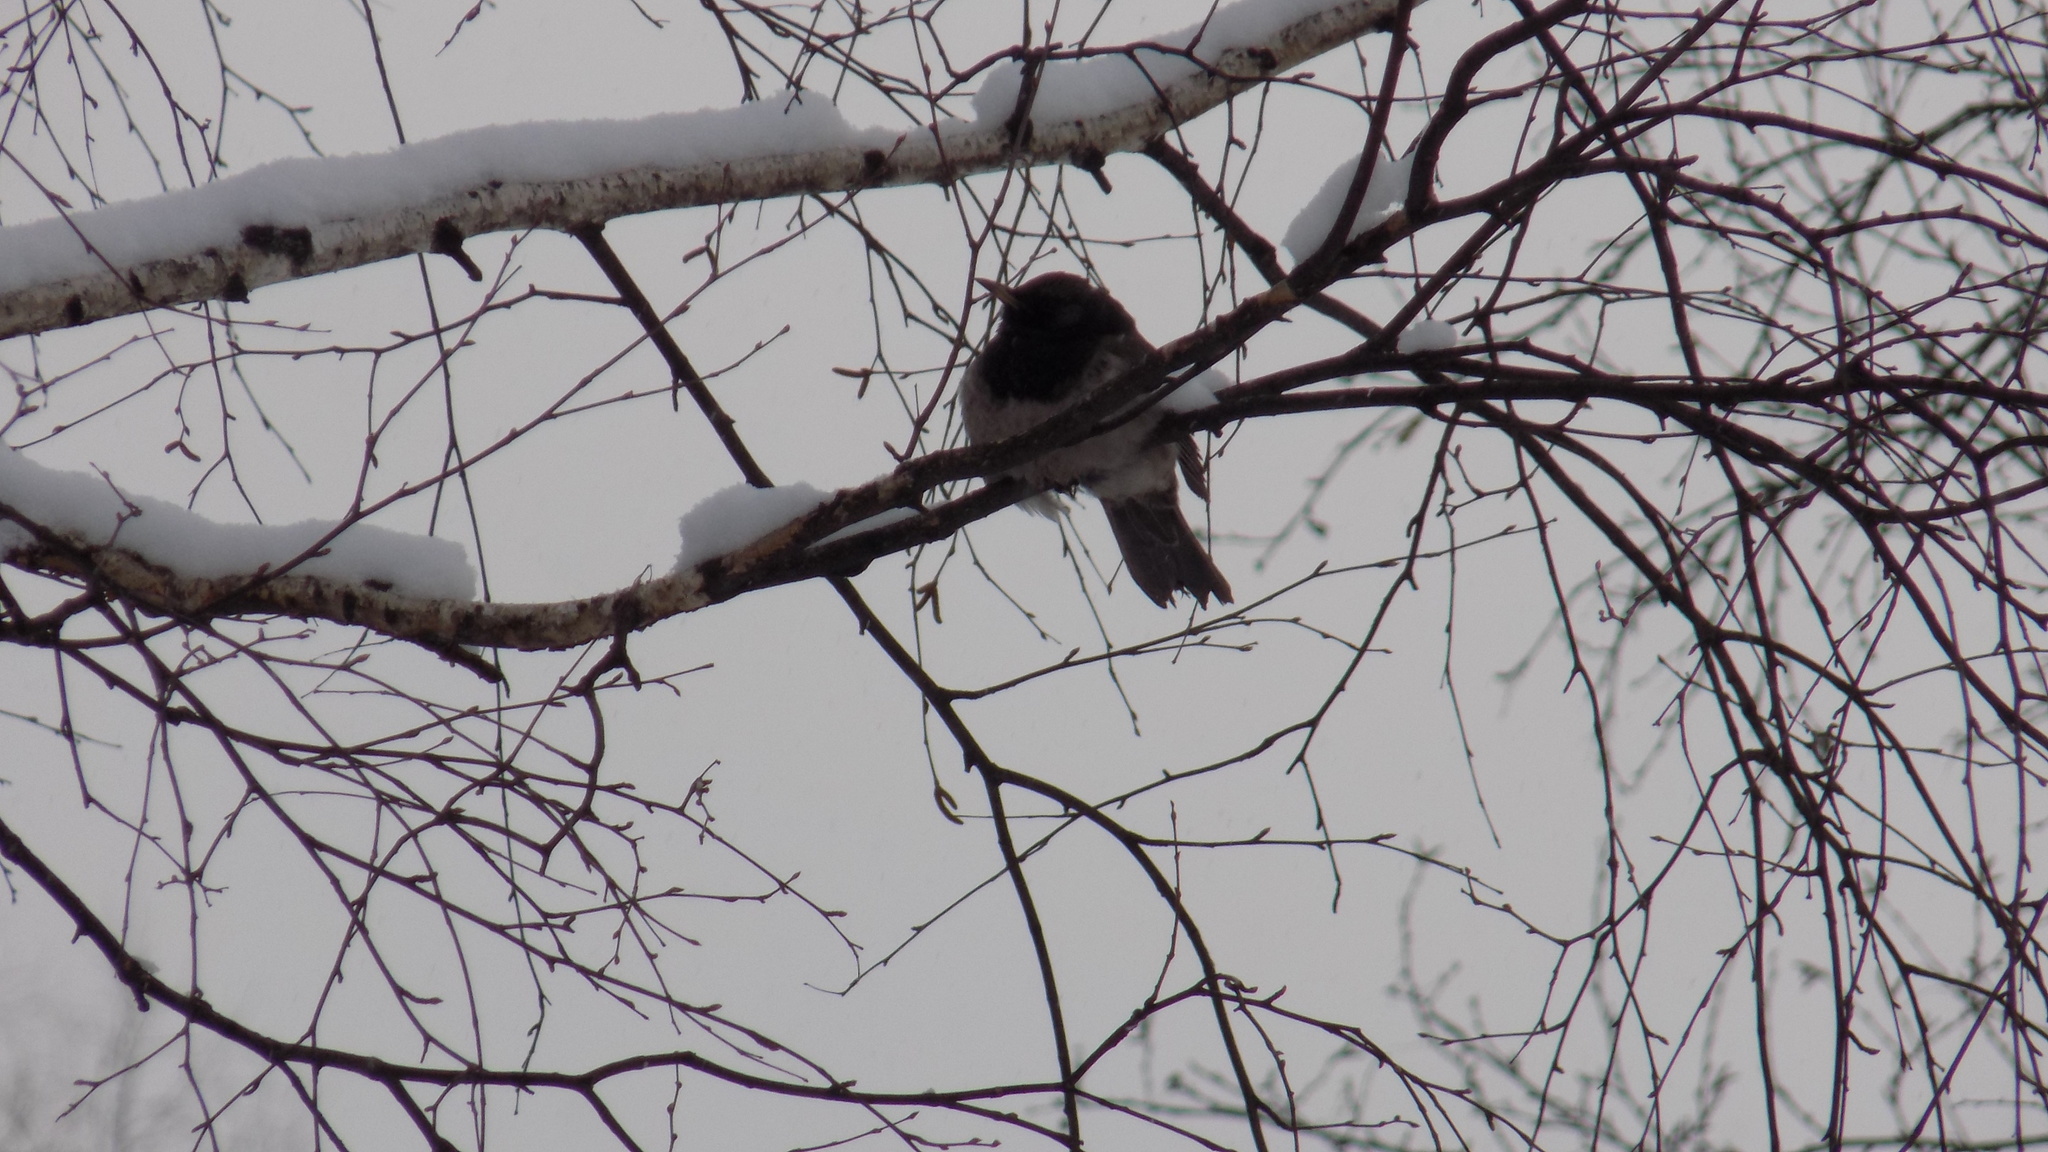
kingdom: Animalia
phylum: Chordata
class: Aves
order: Passeriformes
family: Turdidae
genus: Turdus
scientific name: Turdus atrogularis
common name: Black-throated thrush
